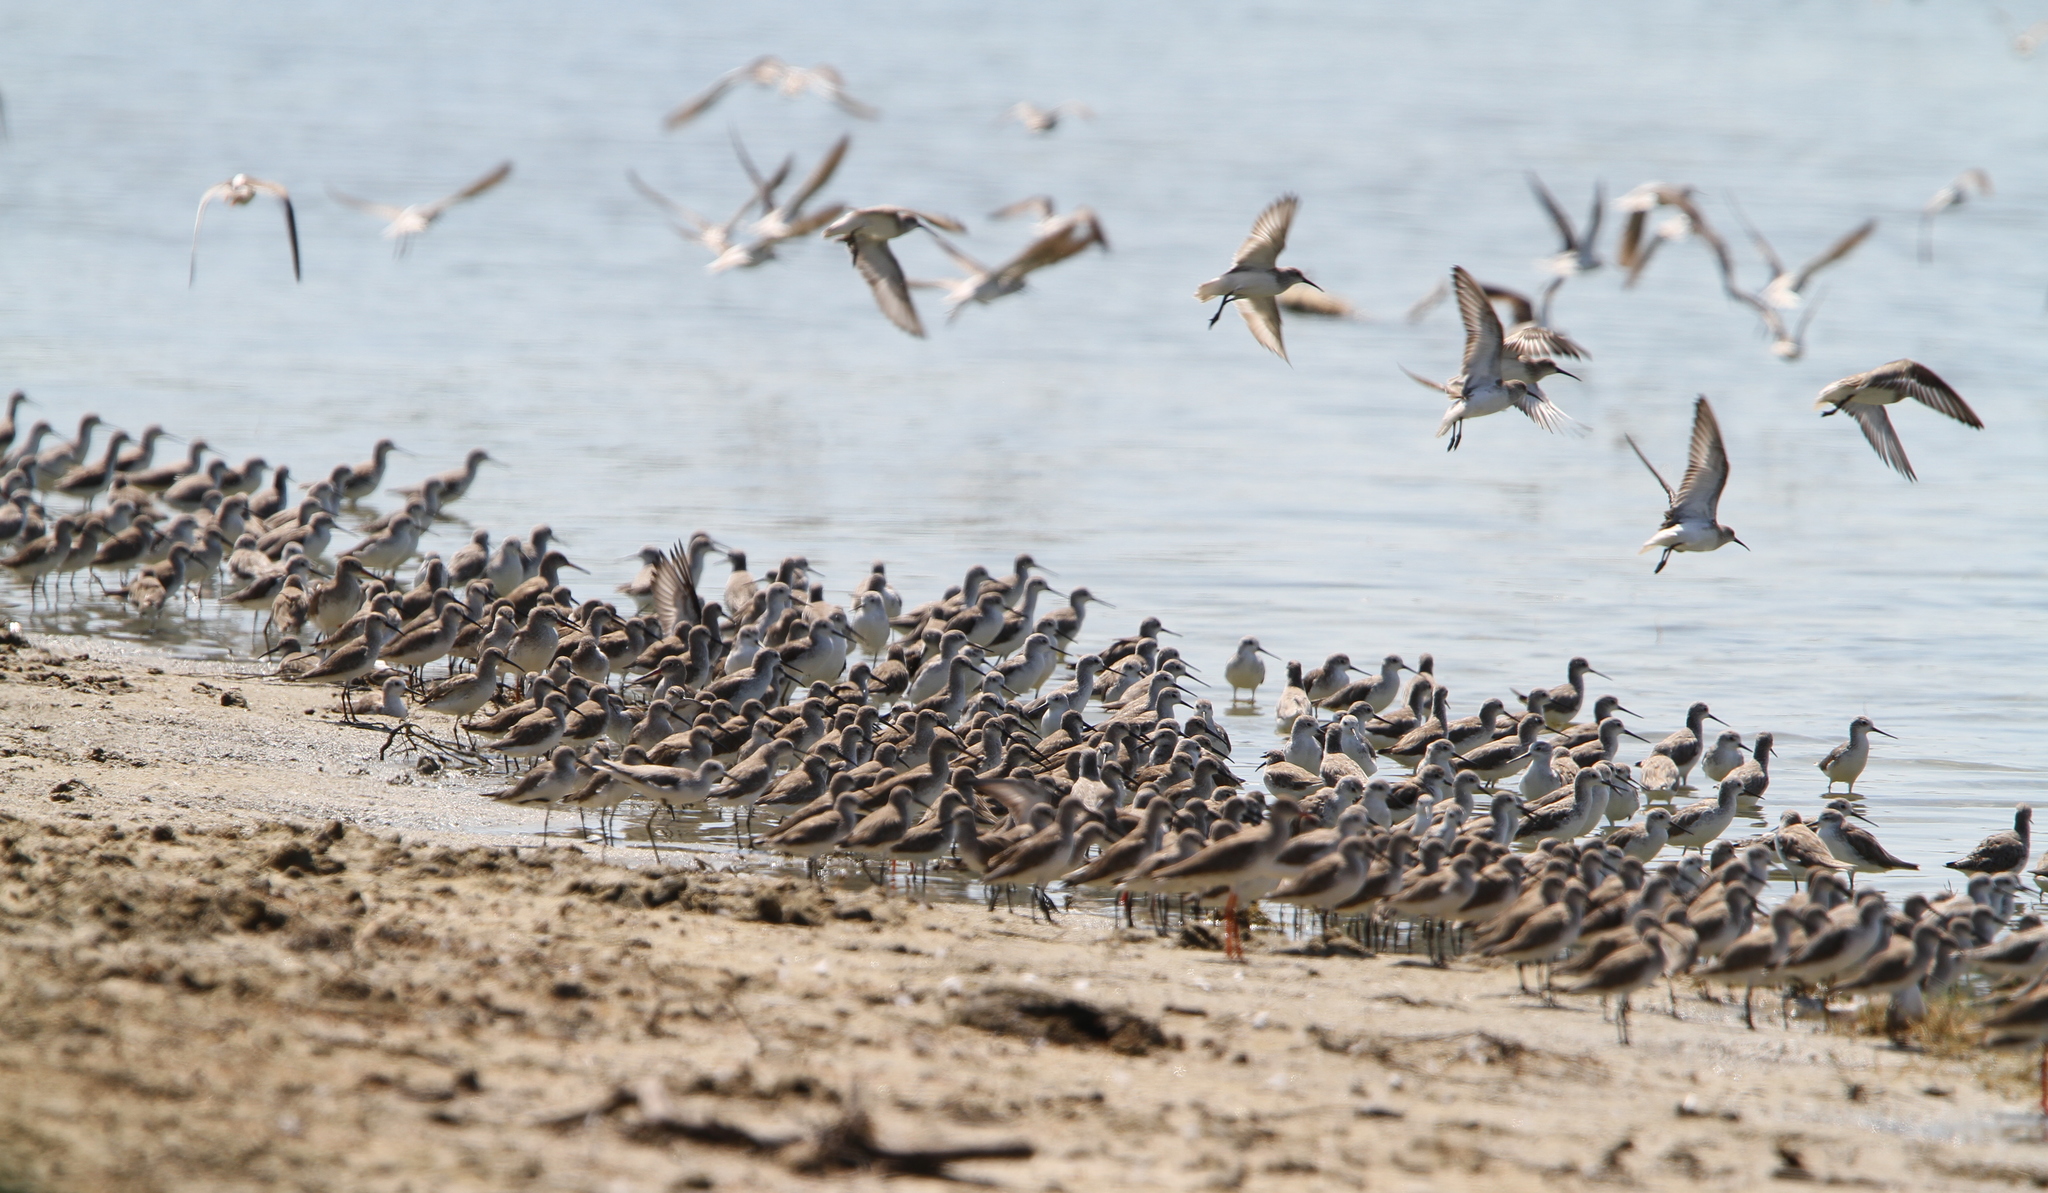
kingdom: Animalia
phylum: Chordata
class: Aves
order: Charadriiformes
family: Scolopacidae
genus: Tringa
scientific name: Tringa stagnatilis
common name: Marsh sandpiper
